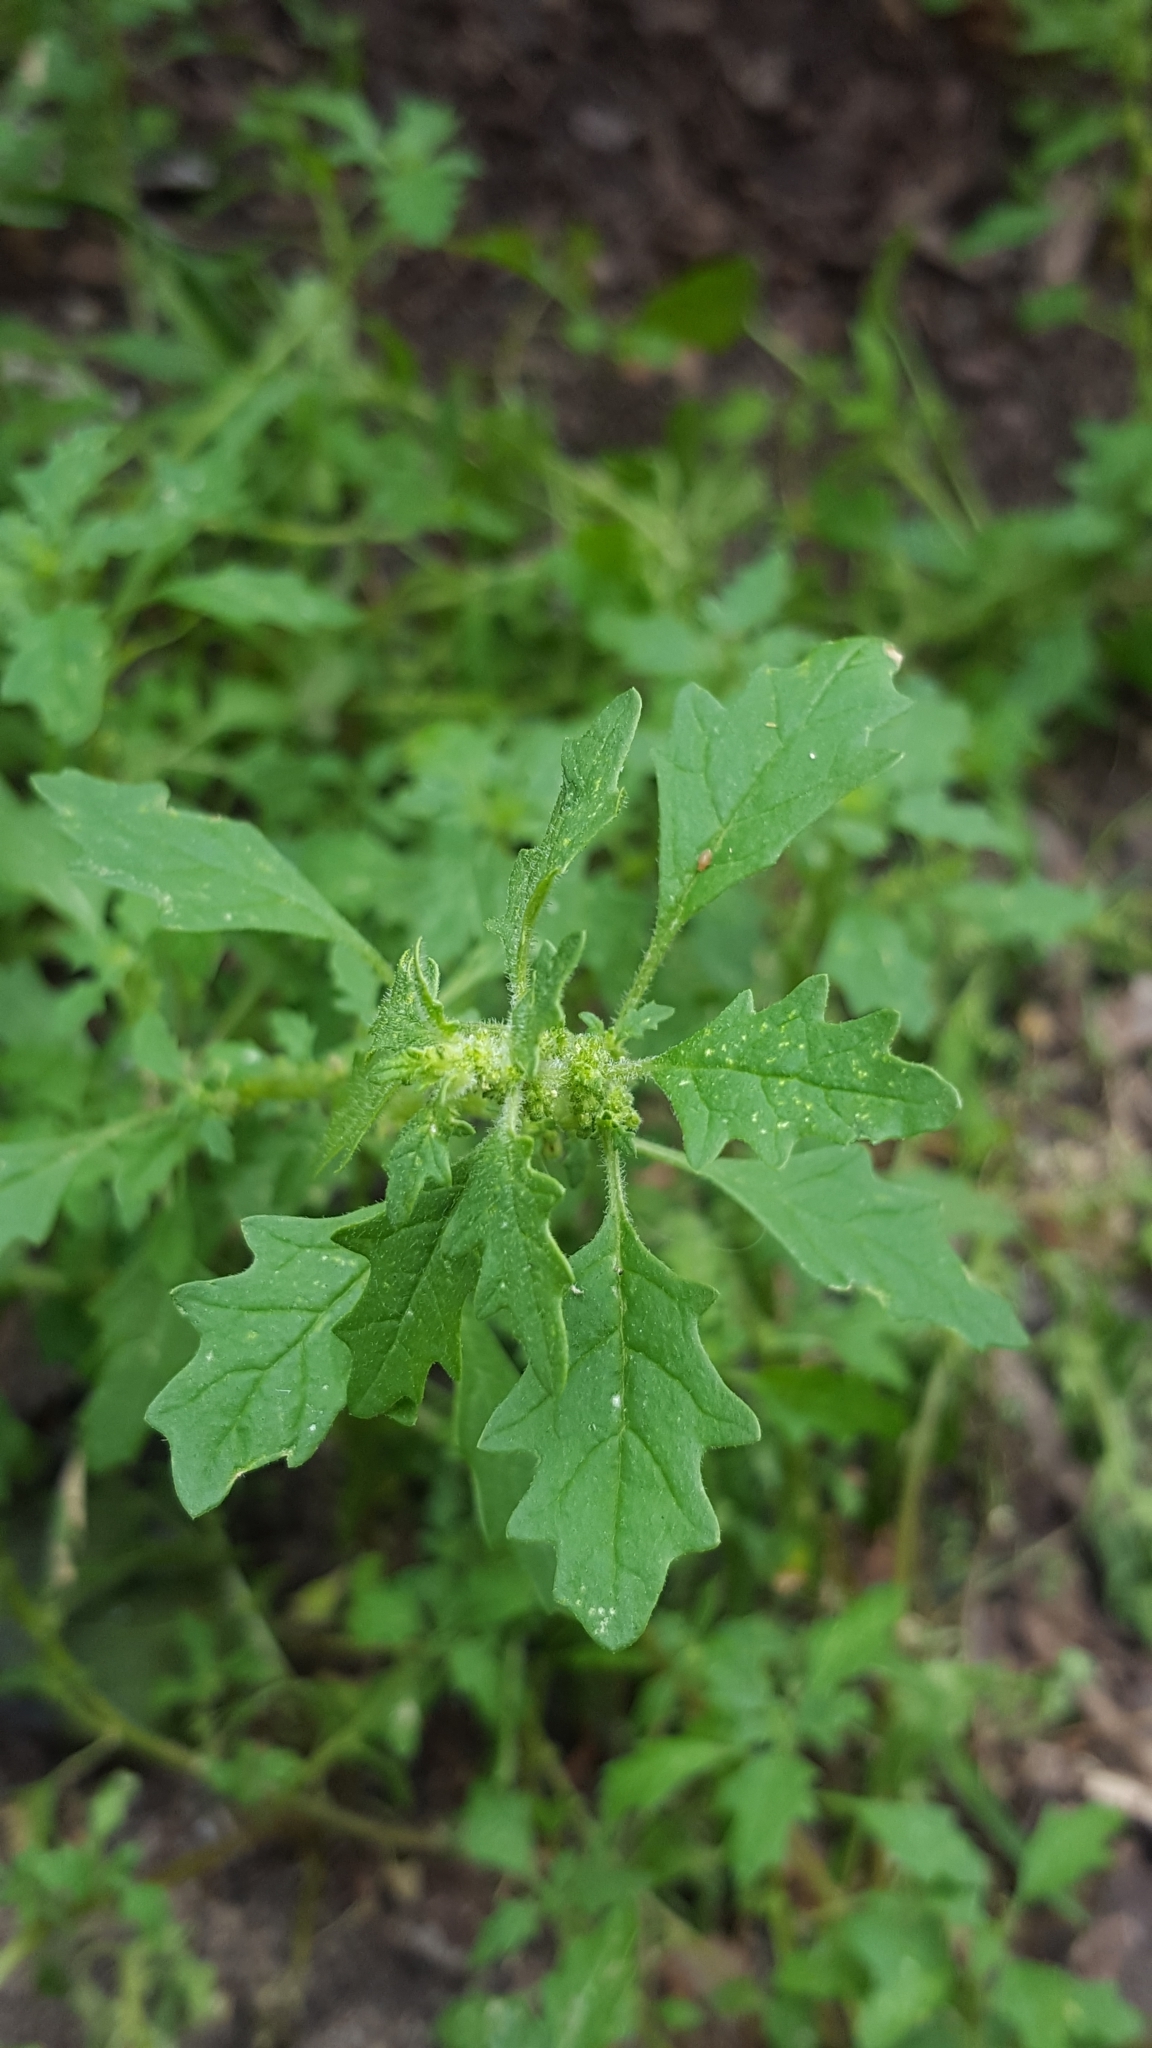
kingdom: Plantae
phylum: Tracheophyta
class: Magnoliopsida
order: Caryophyllales
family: Amaranthaceae
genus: Dysphania
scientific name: Dysphania pumilio
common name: Clammy goosefoot
